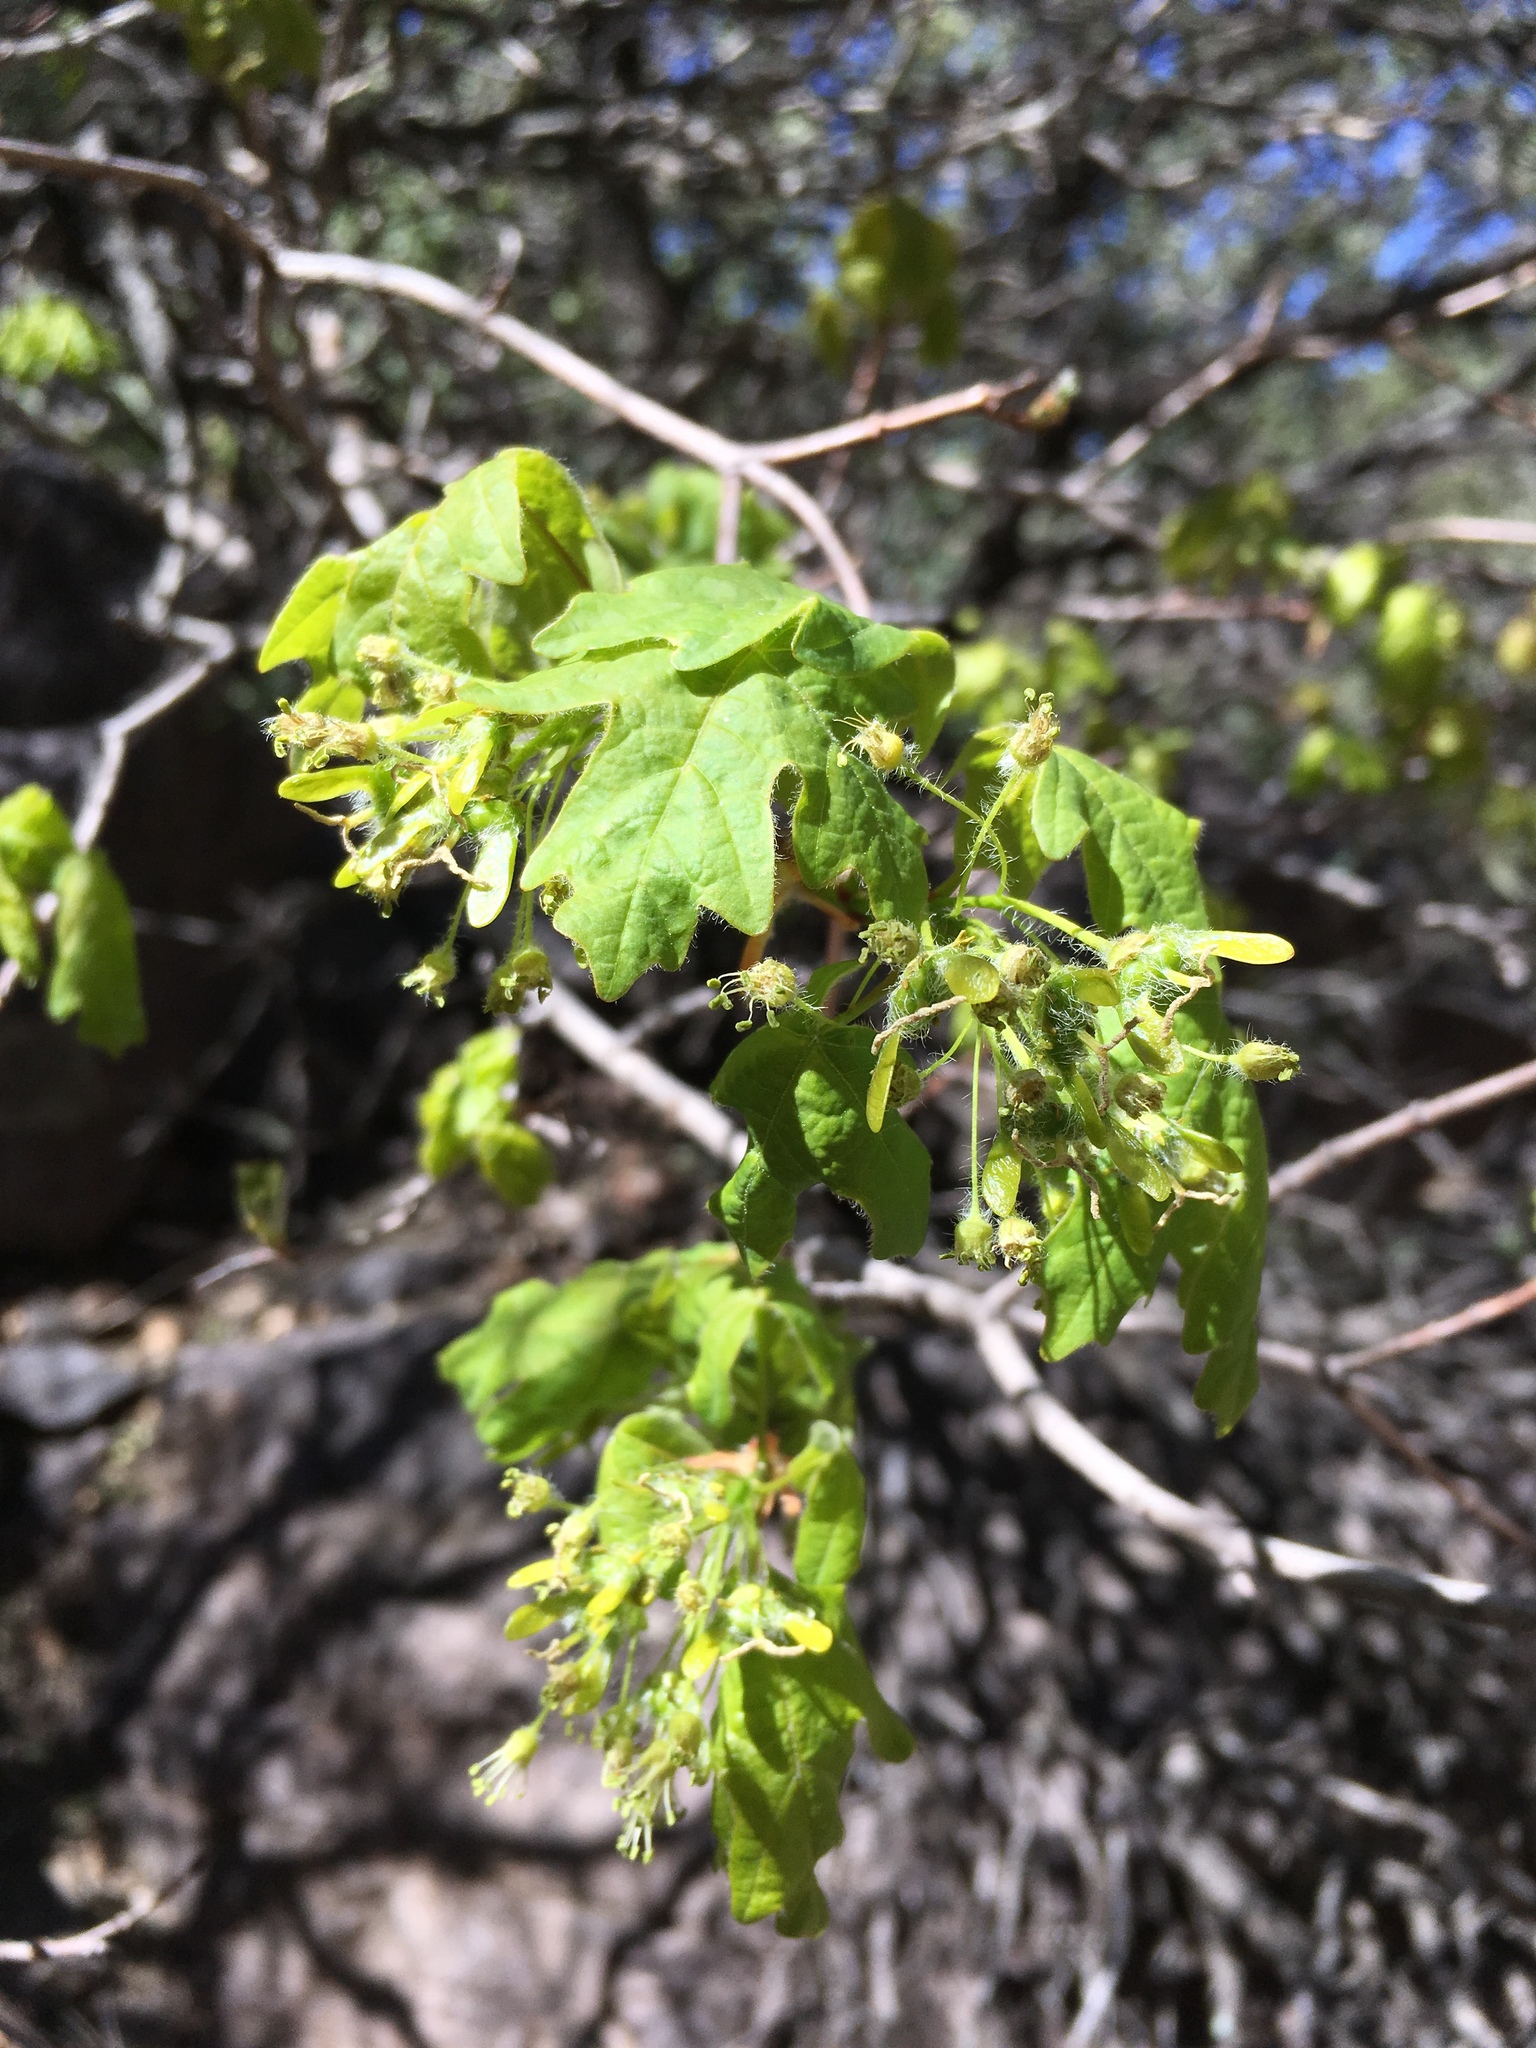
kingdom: Plantae
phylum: Tracheophyta
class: Magnoliopsida
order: Sapindales
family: Sapindaceae
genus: Acer
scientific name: Acer grandidentatum
